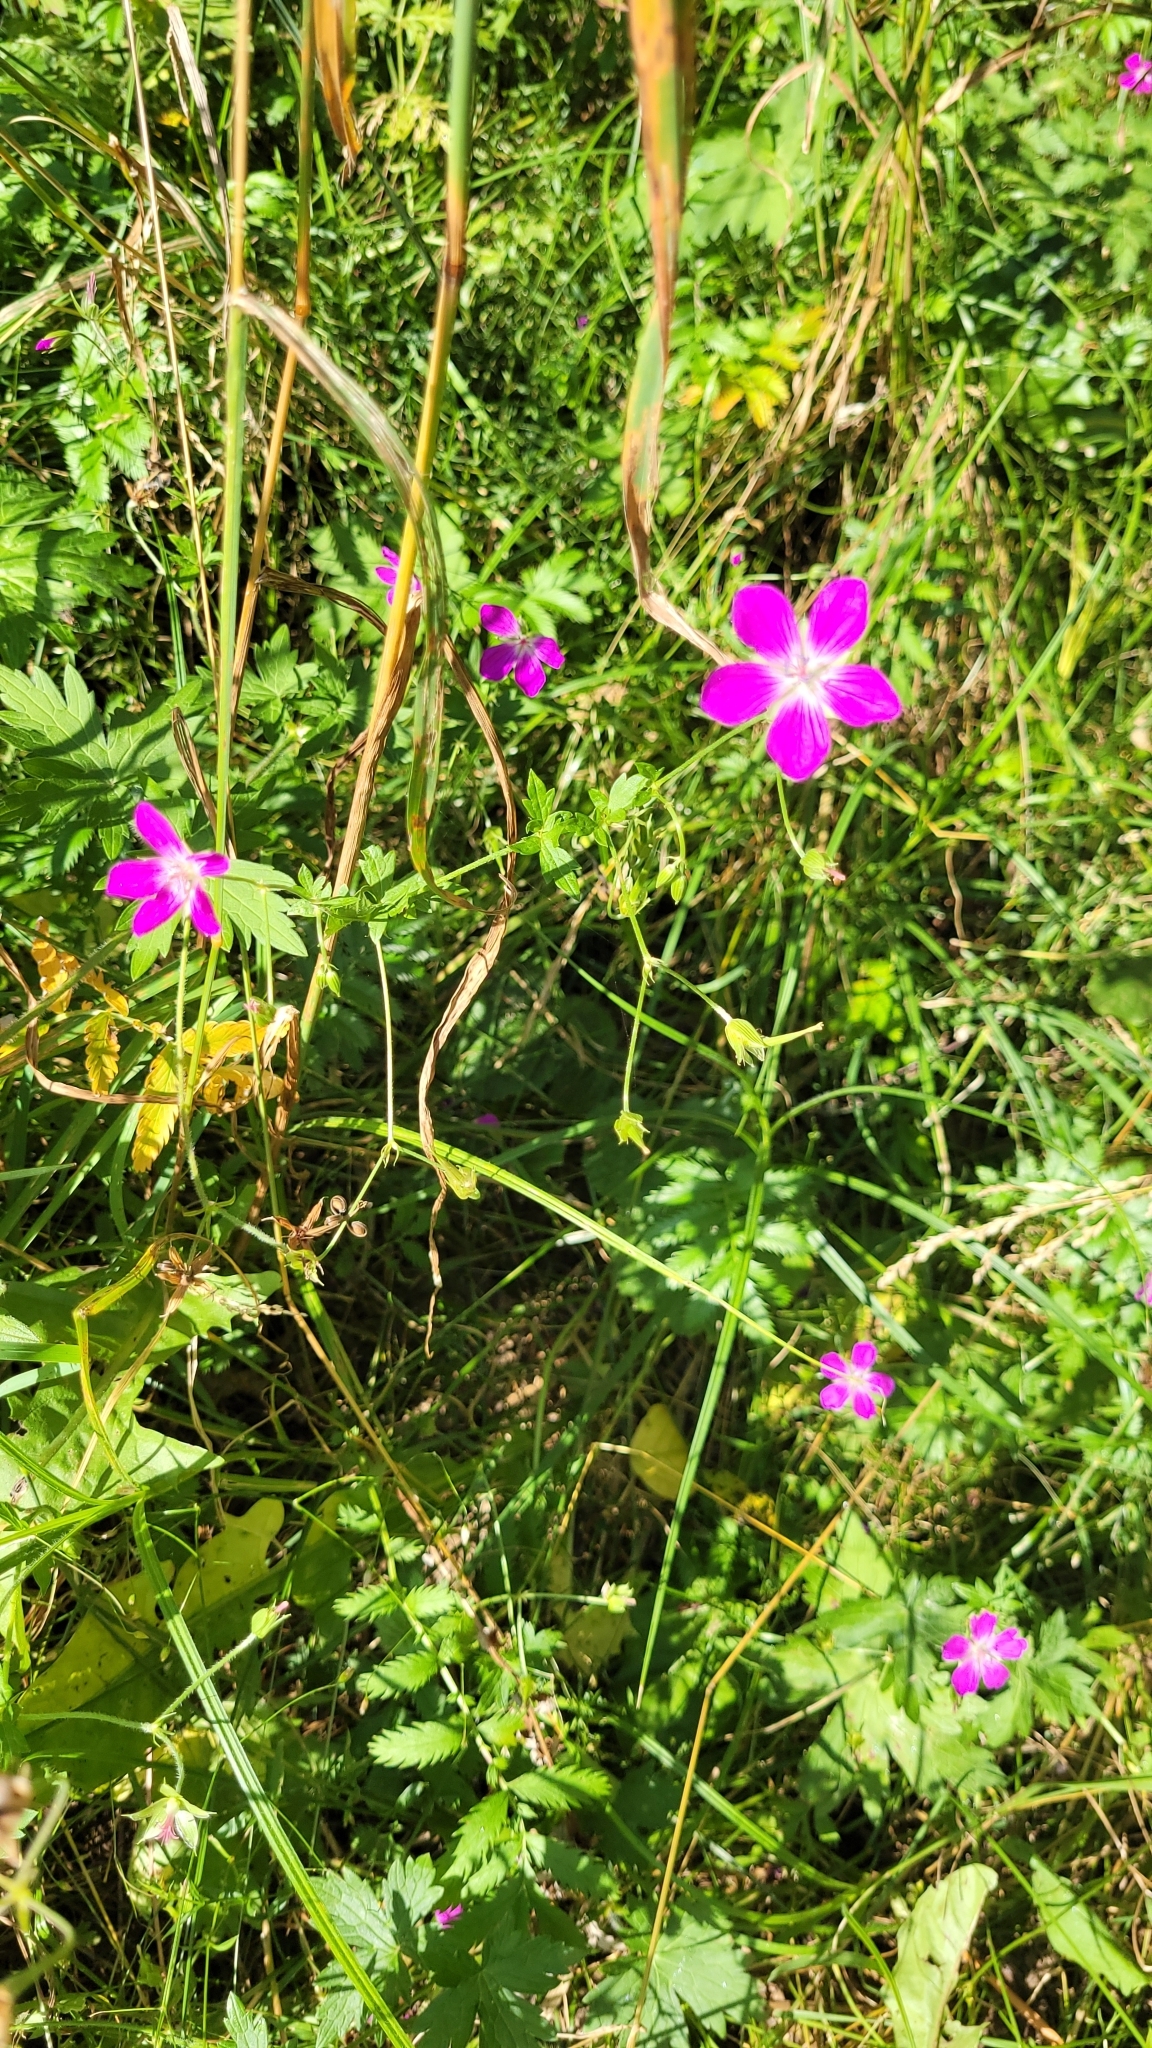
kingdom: Plantae
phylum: Tracheophyta
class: Magnoliopsida
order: Geraniales
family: Geraniaceae
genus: Geranium
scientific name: Geranium palustre
